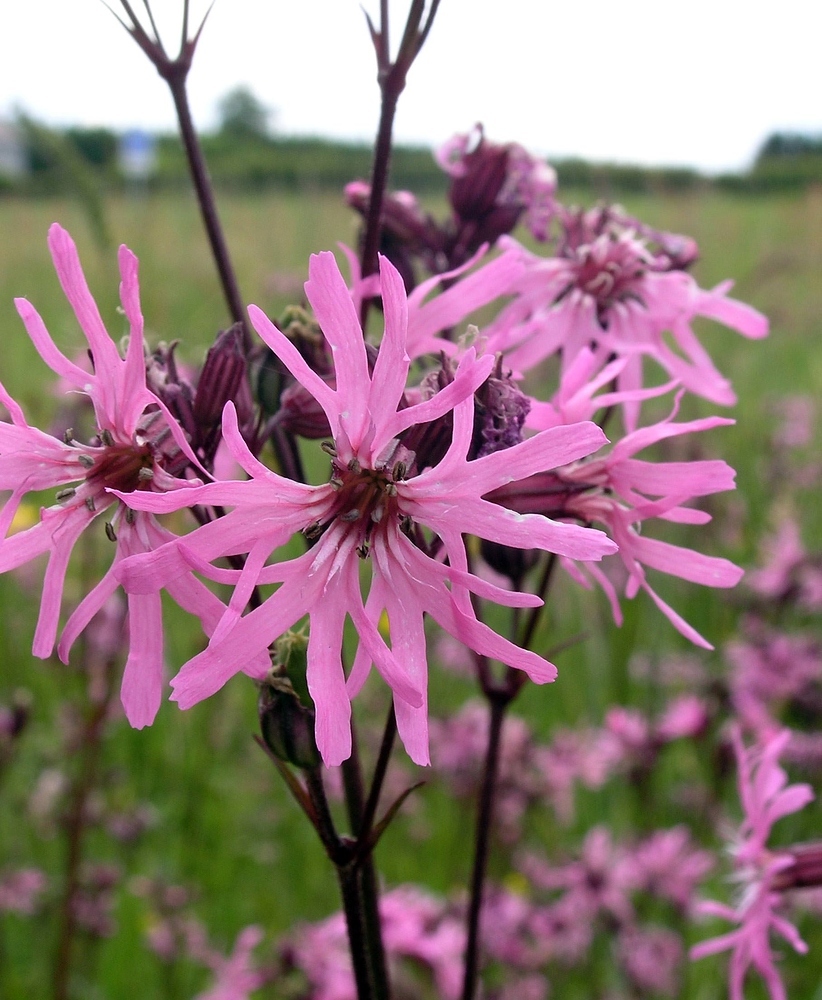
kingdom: Plantae
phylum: Tracheophyta
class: Magnoliopsida
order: Caryophyllales
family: Caryophyllaceae
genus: Silene
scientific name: Silene flos-cuculi
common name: Ragged-robin
